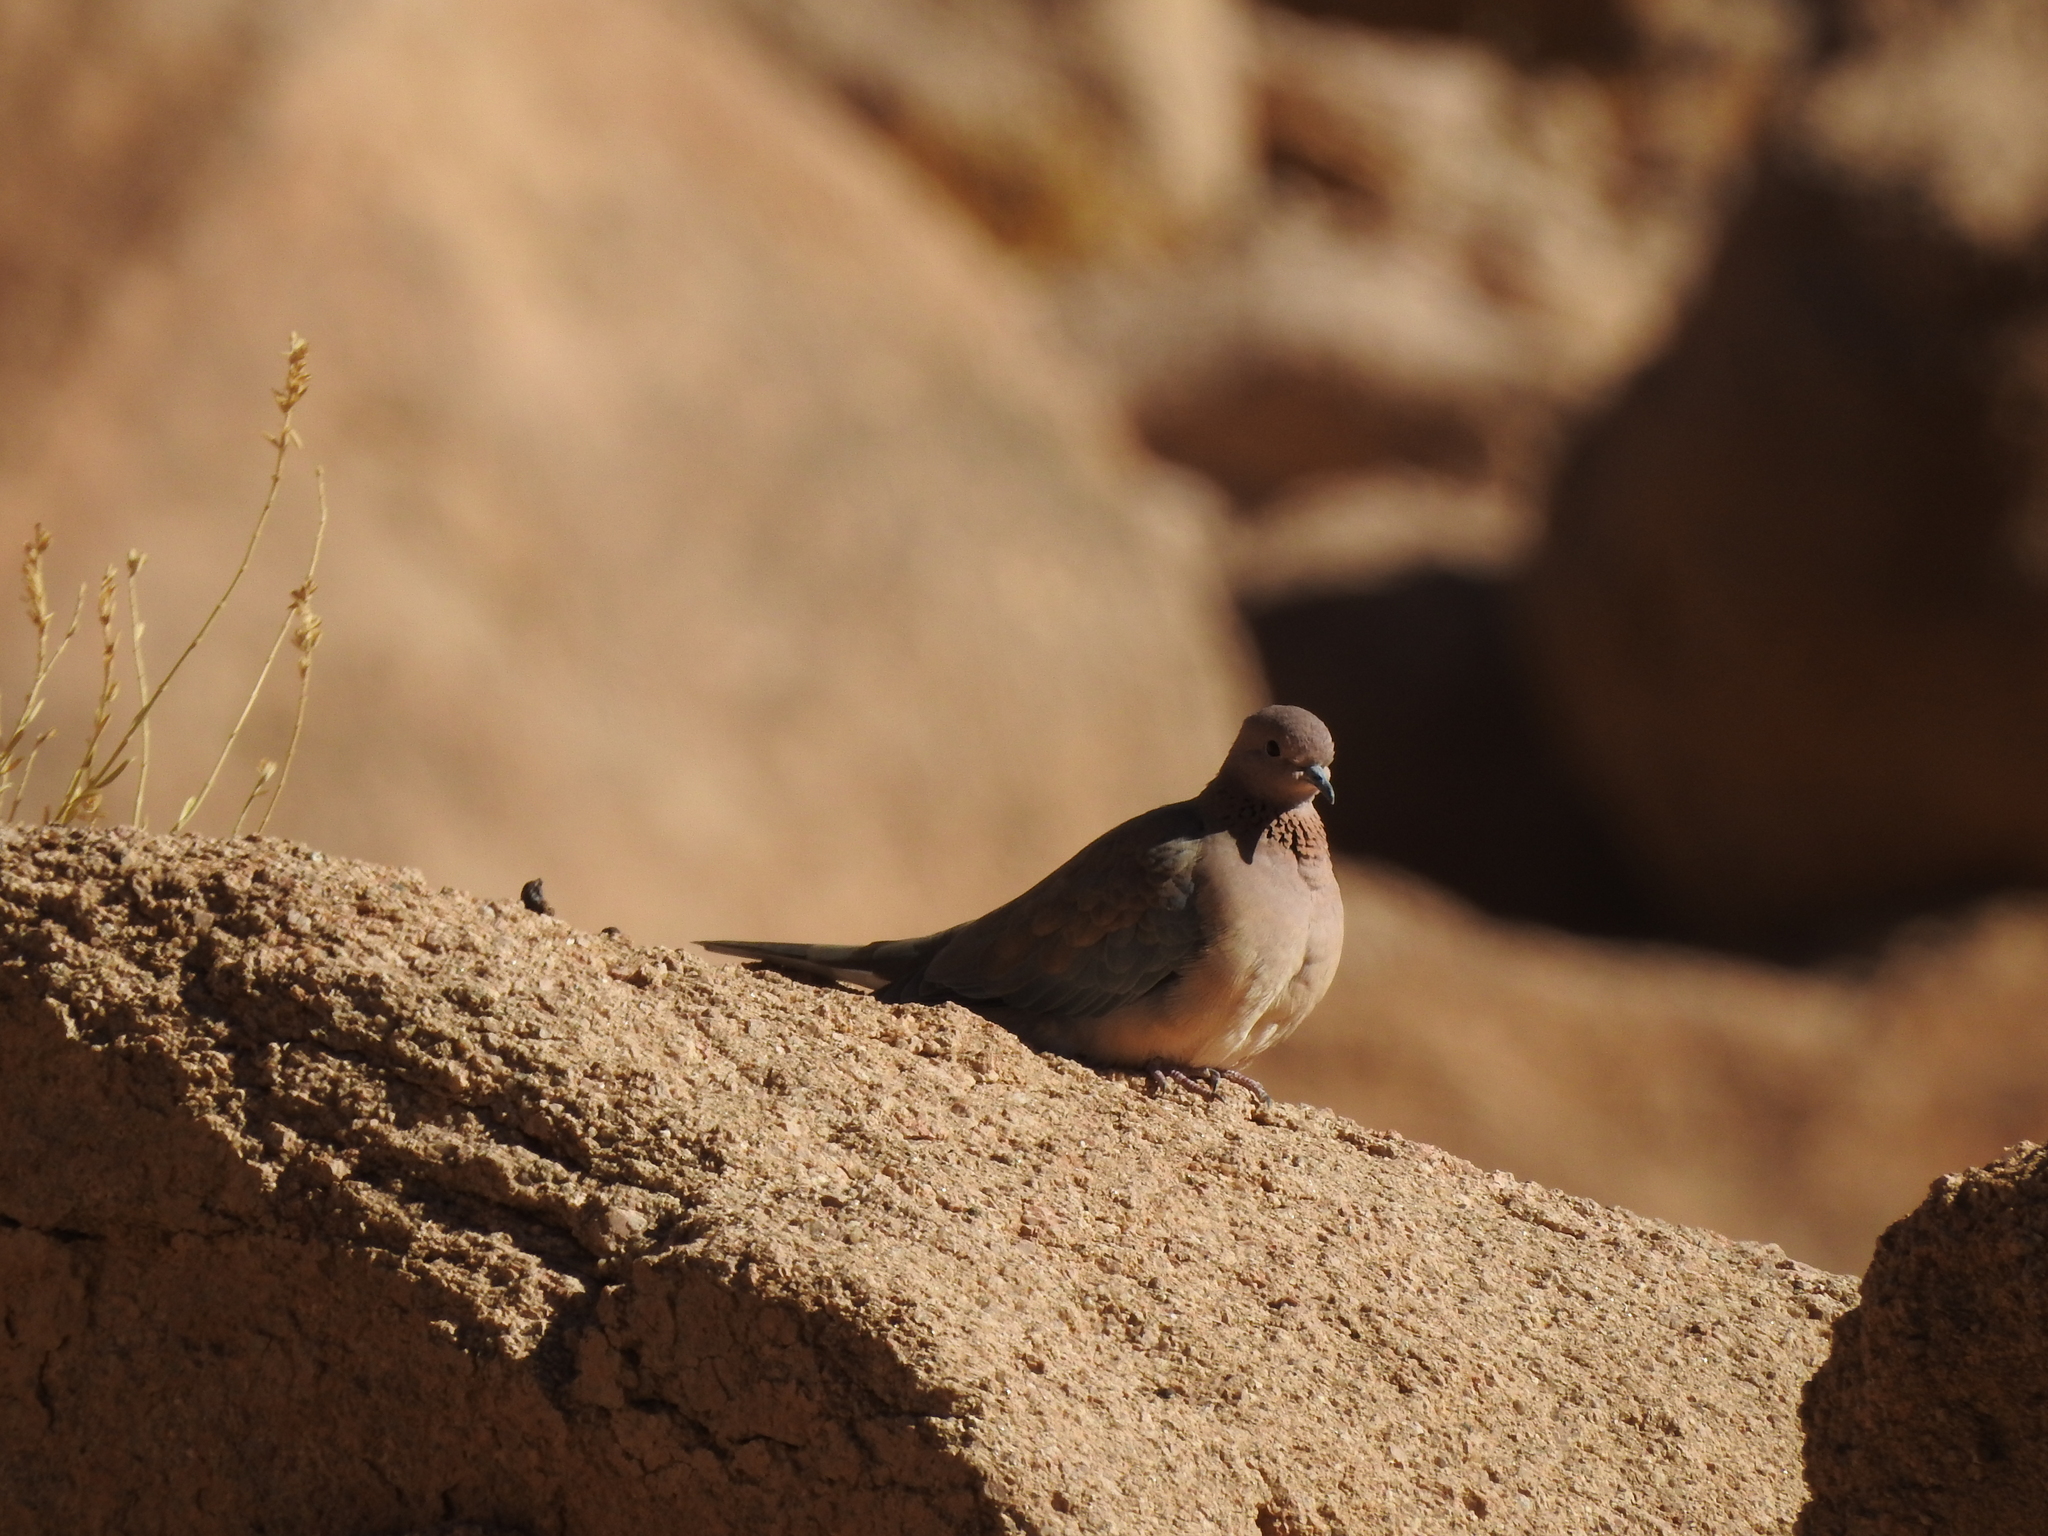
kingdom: Animalia
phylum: Chordata
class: Aves
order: Columbiformes
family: Columbidae
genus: Spilopelia
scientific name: Spilopelia senegalensis
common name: Laughing dove
